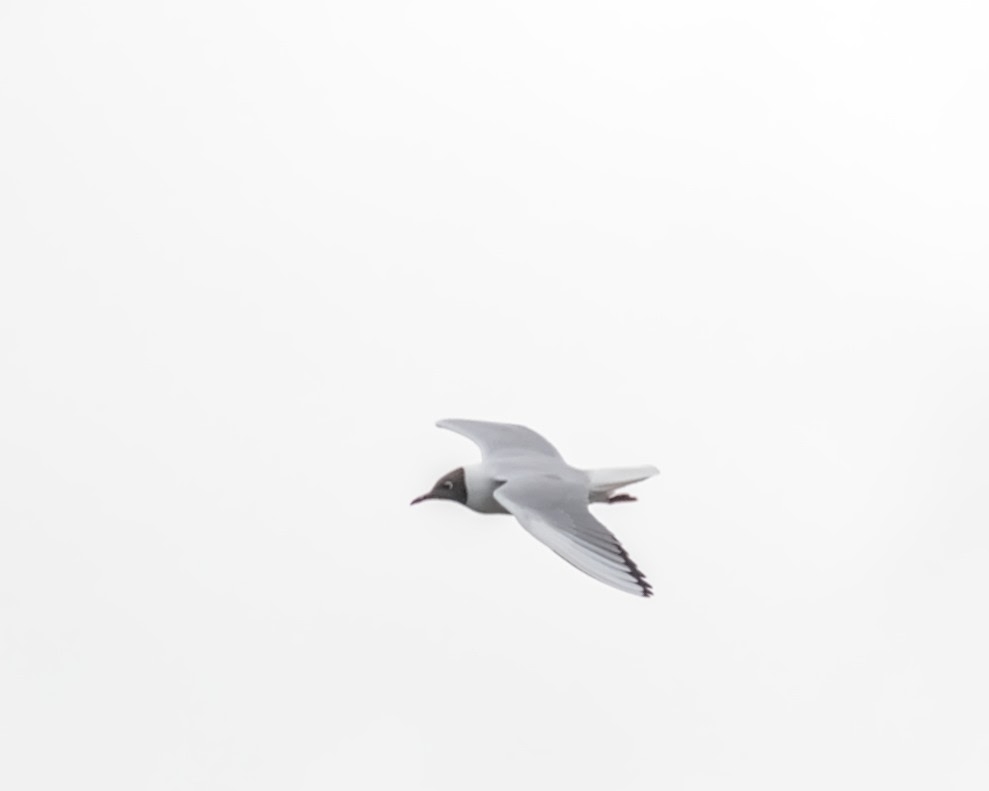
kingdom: Animalia
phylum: Chordata
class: Aves
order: Charadriiformes
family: Laridae
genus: Chroicocephalus
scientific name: Chroicocephalus ridibundus
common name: Black-headed gull
